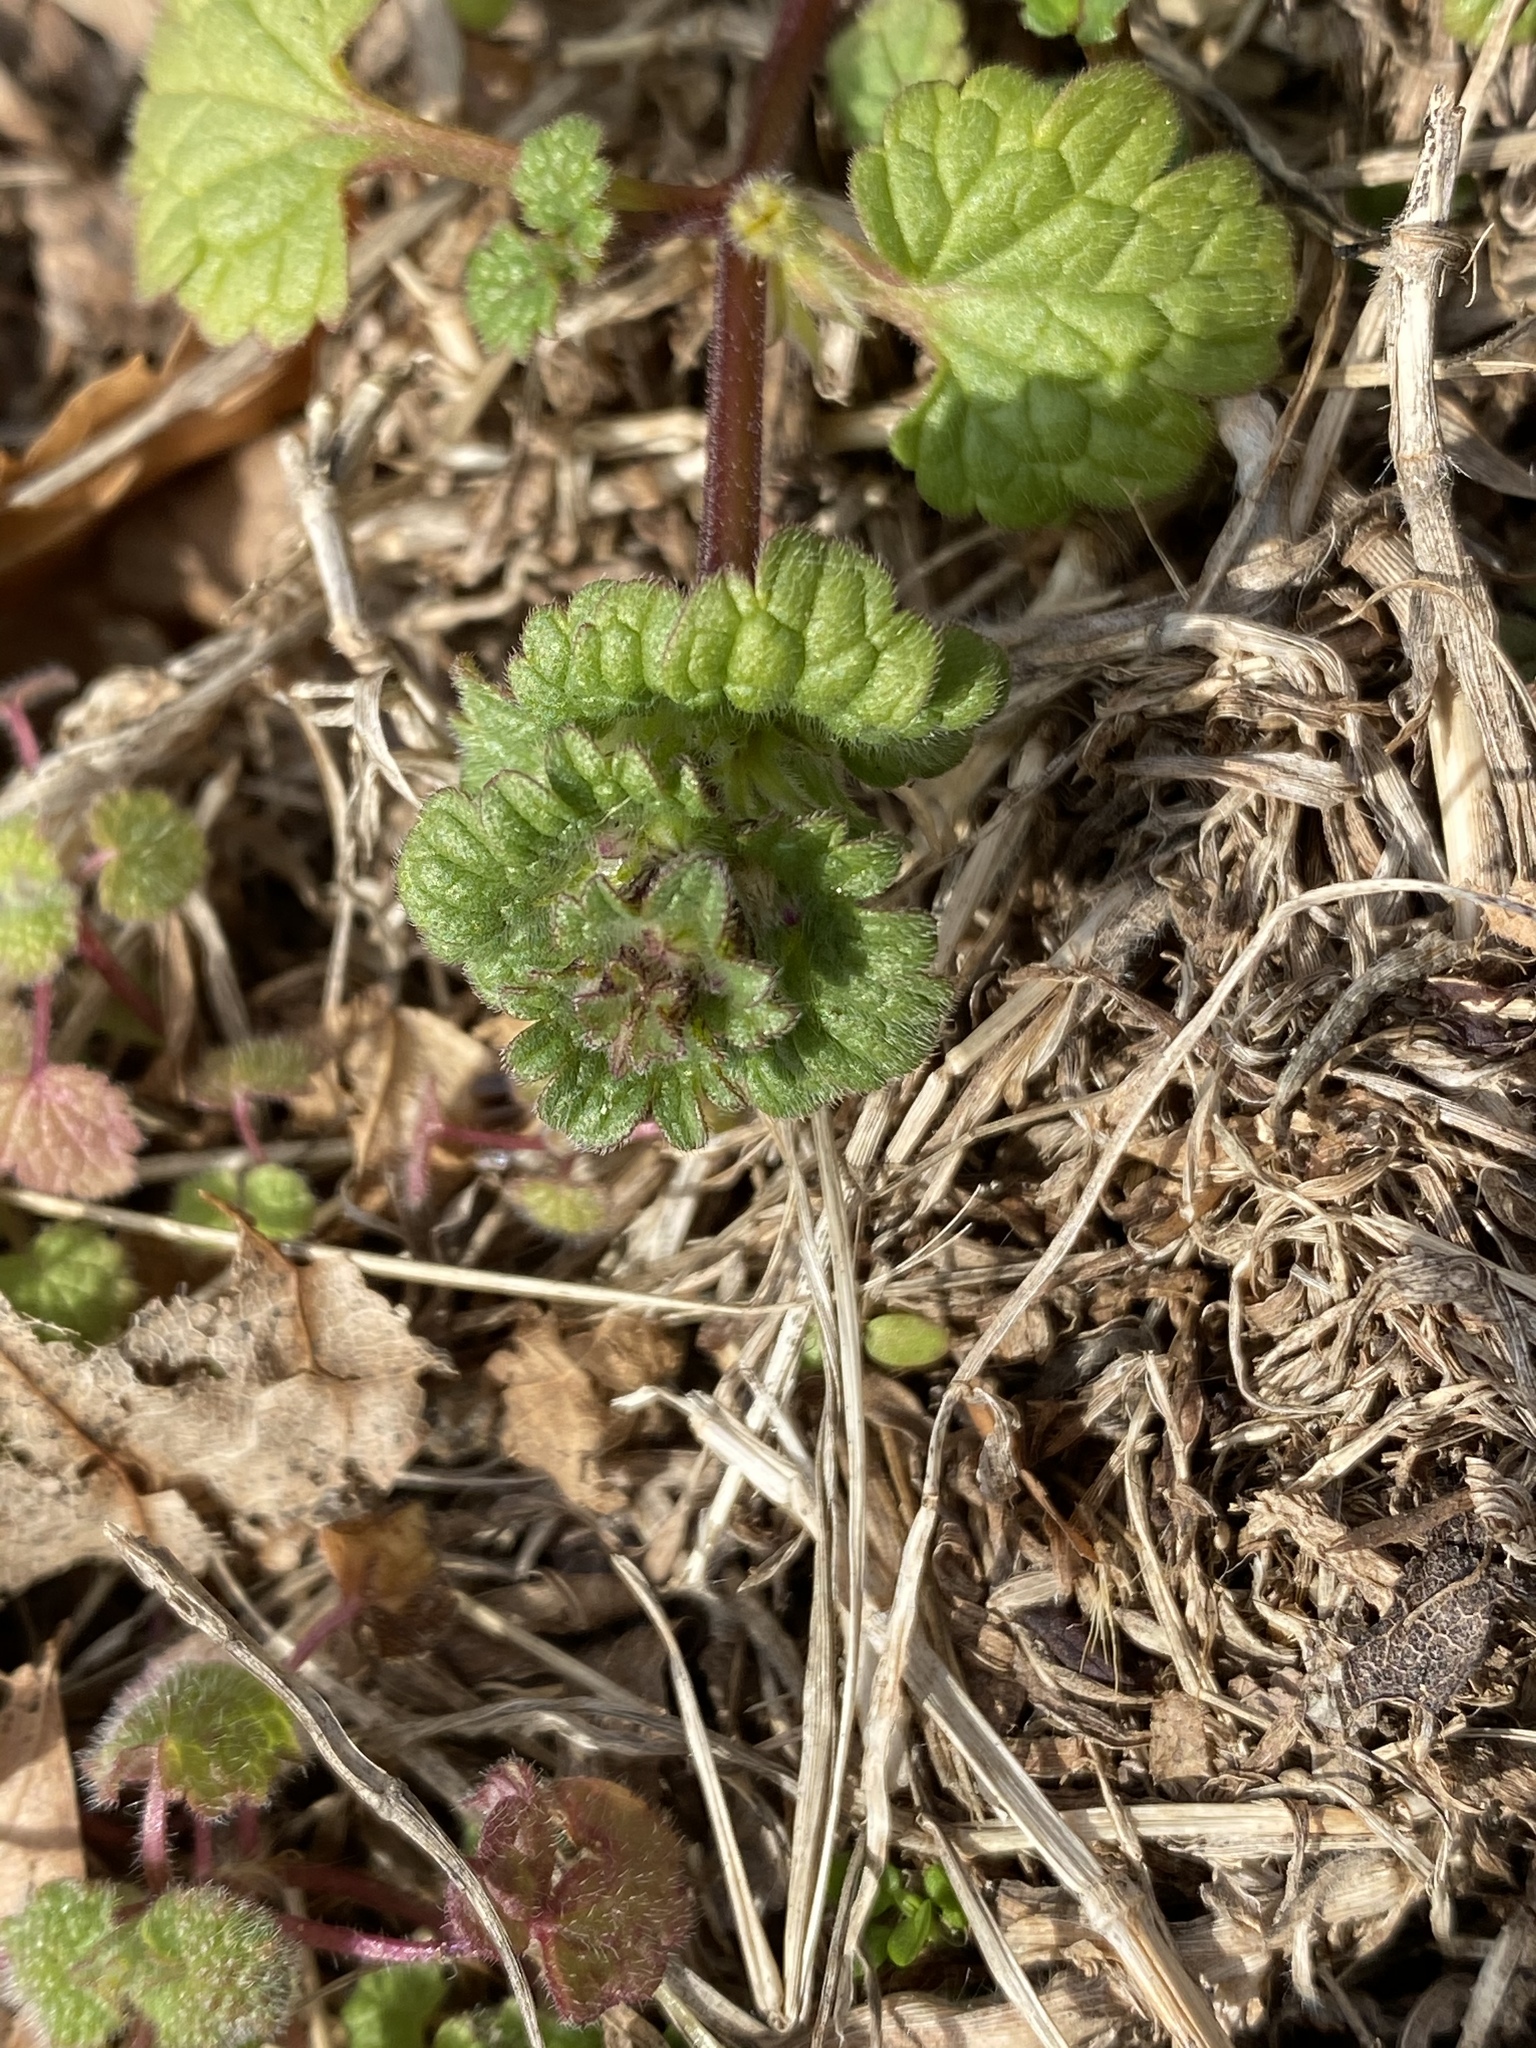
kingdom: Plantae
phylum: Tracheophyta
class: Magnoliopsida
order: Lamiales
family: Lamiaceae
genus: Lamium
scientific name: Lamium amplexicaule
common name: Henbit dead-nettle
